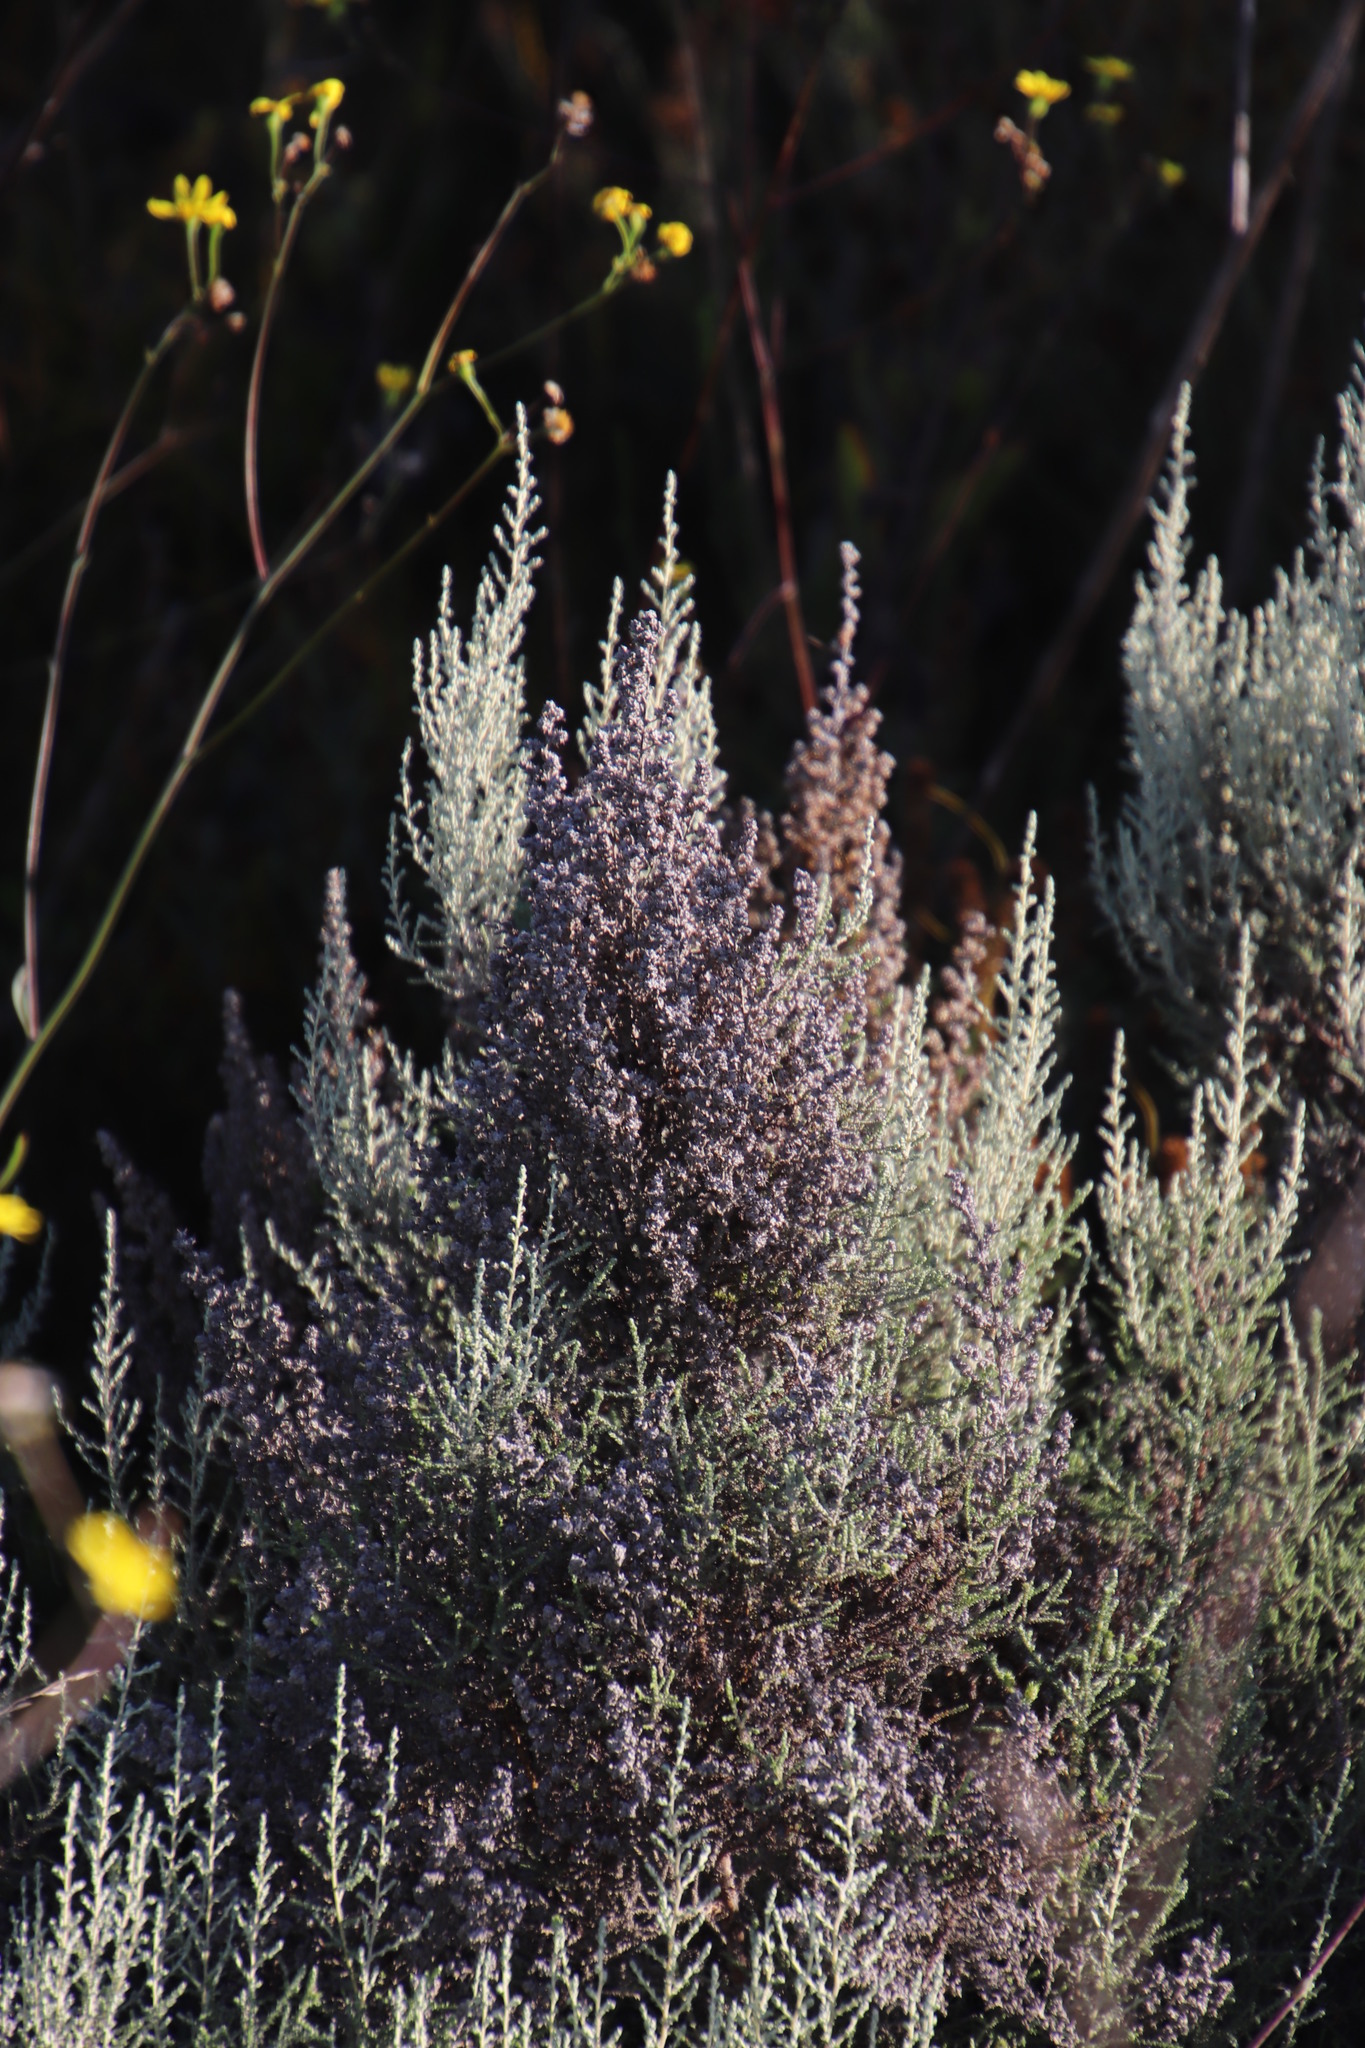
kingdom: Plantae
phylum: Tracheophyta
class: Magnoliopsida
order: Asterales
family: Asteraceae
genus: Seriphium
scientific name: Seriphium plumosum
